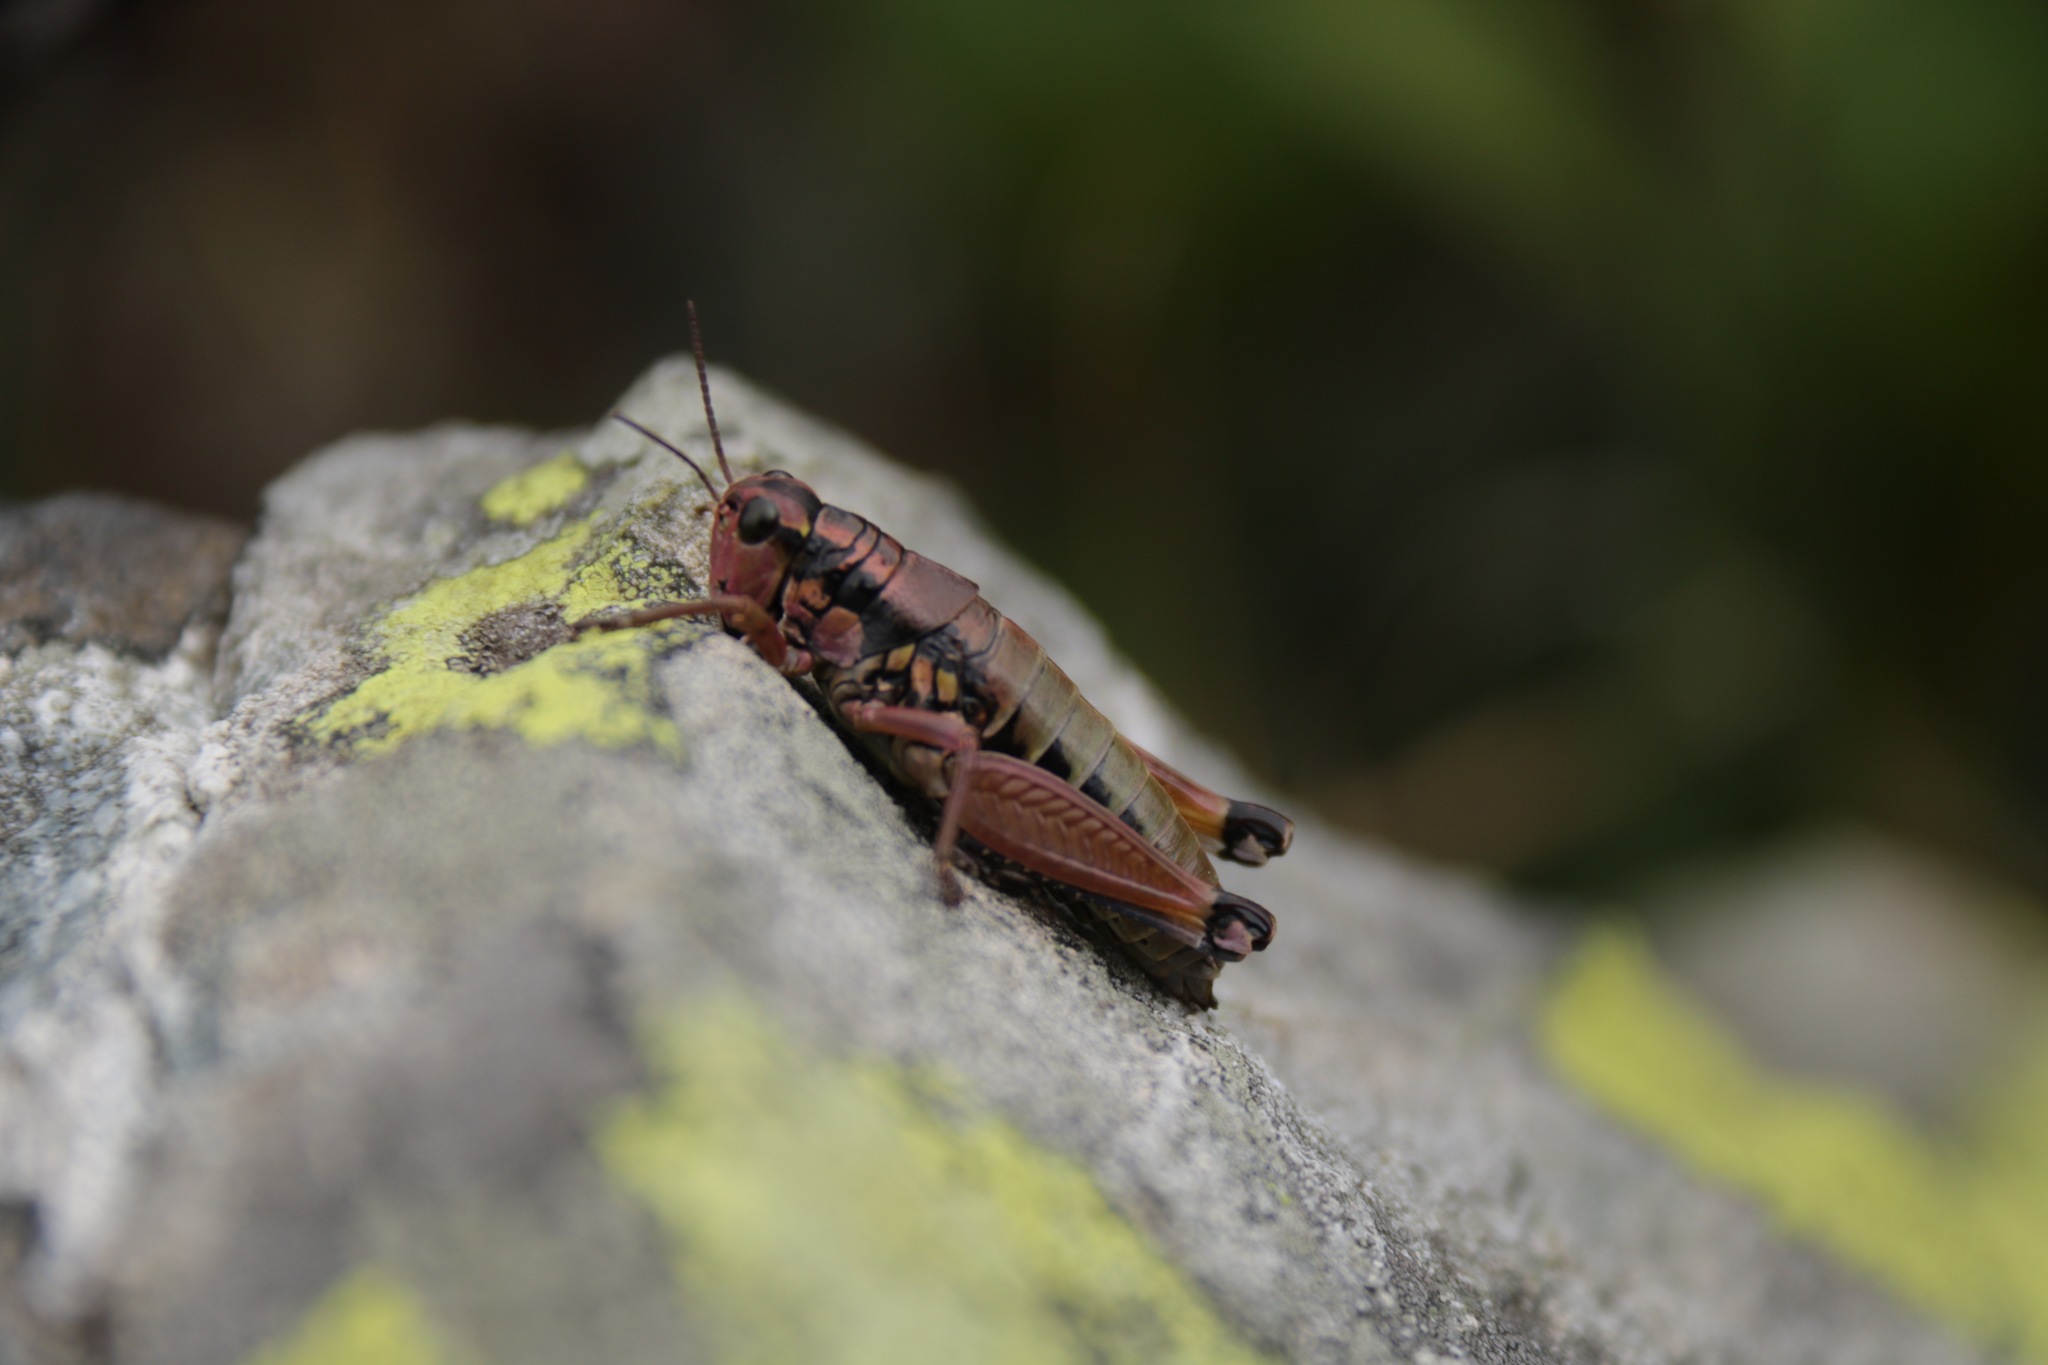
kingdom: Animalia
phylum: Arthropoda
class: Insecta
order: Orthoptera
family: Acrididae
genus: Podisma
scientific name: Podisma pedestris
